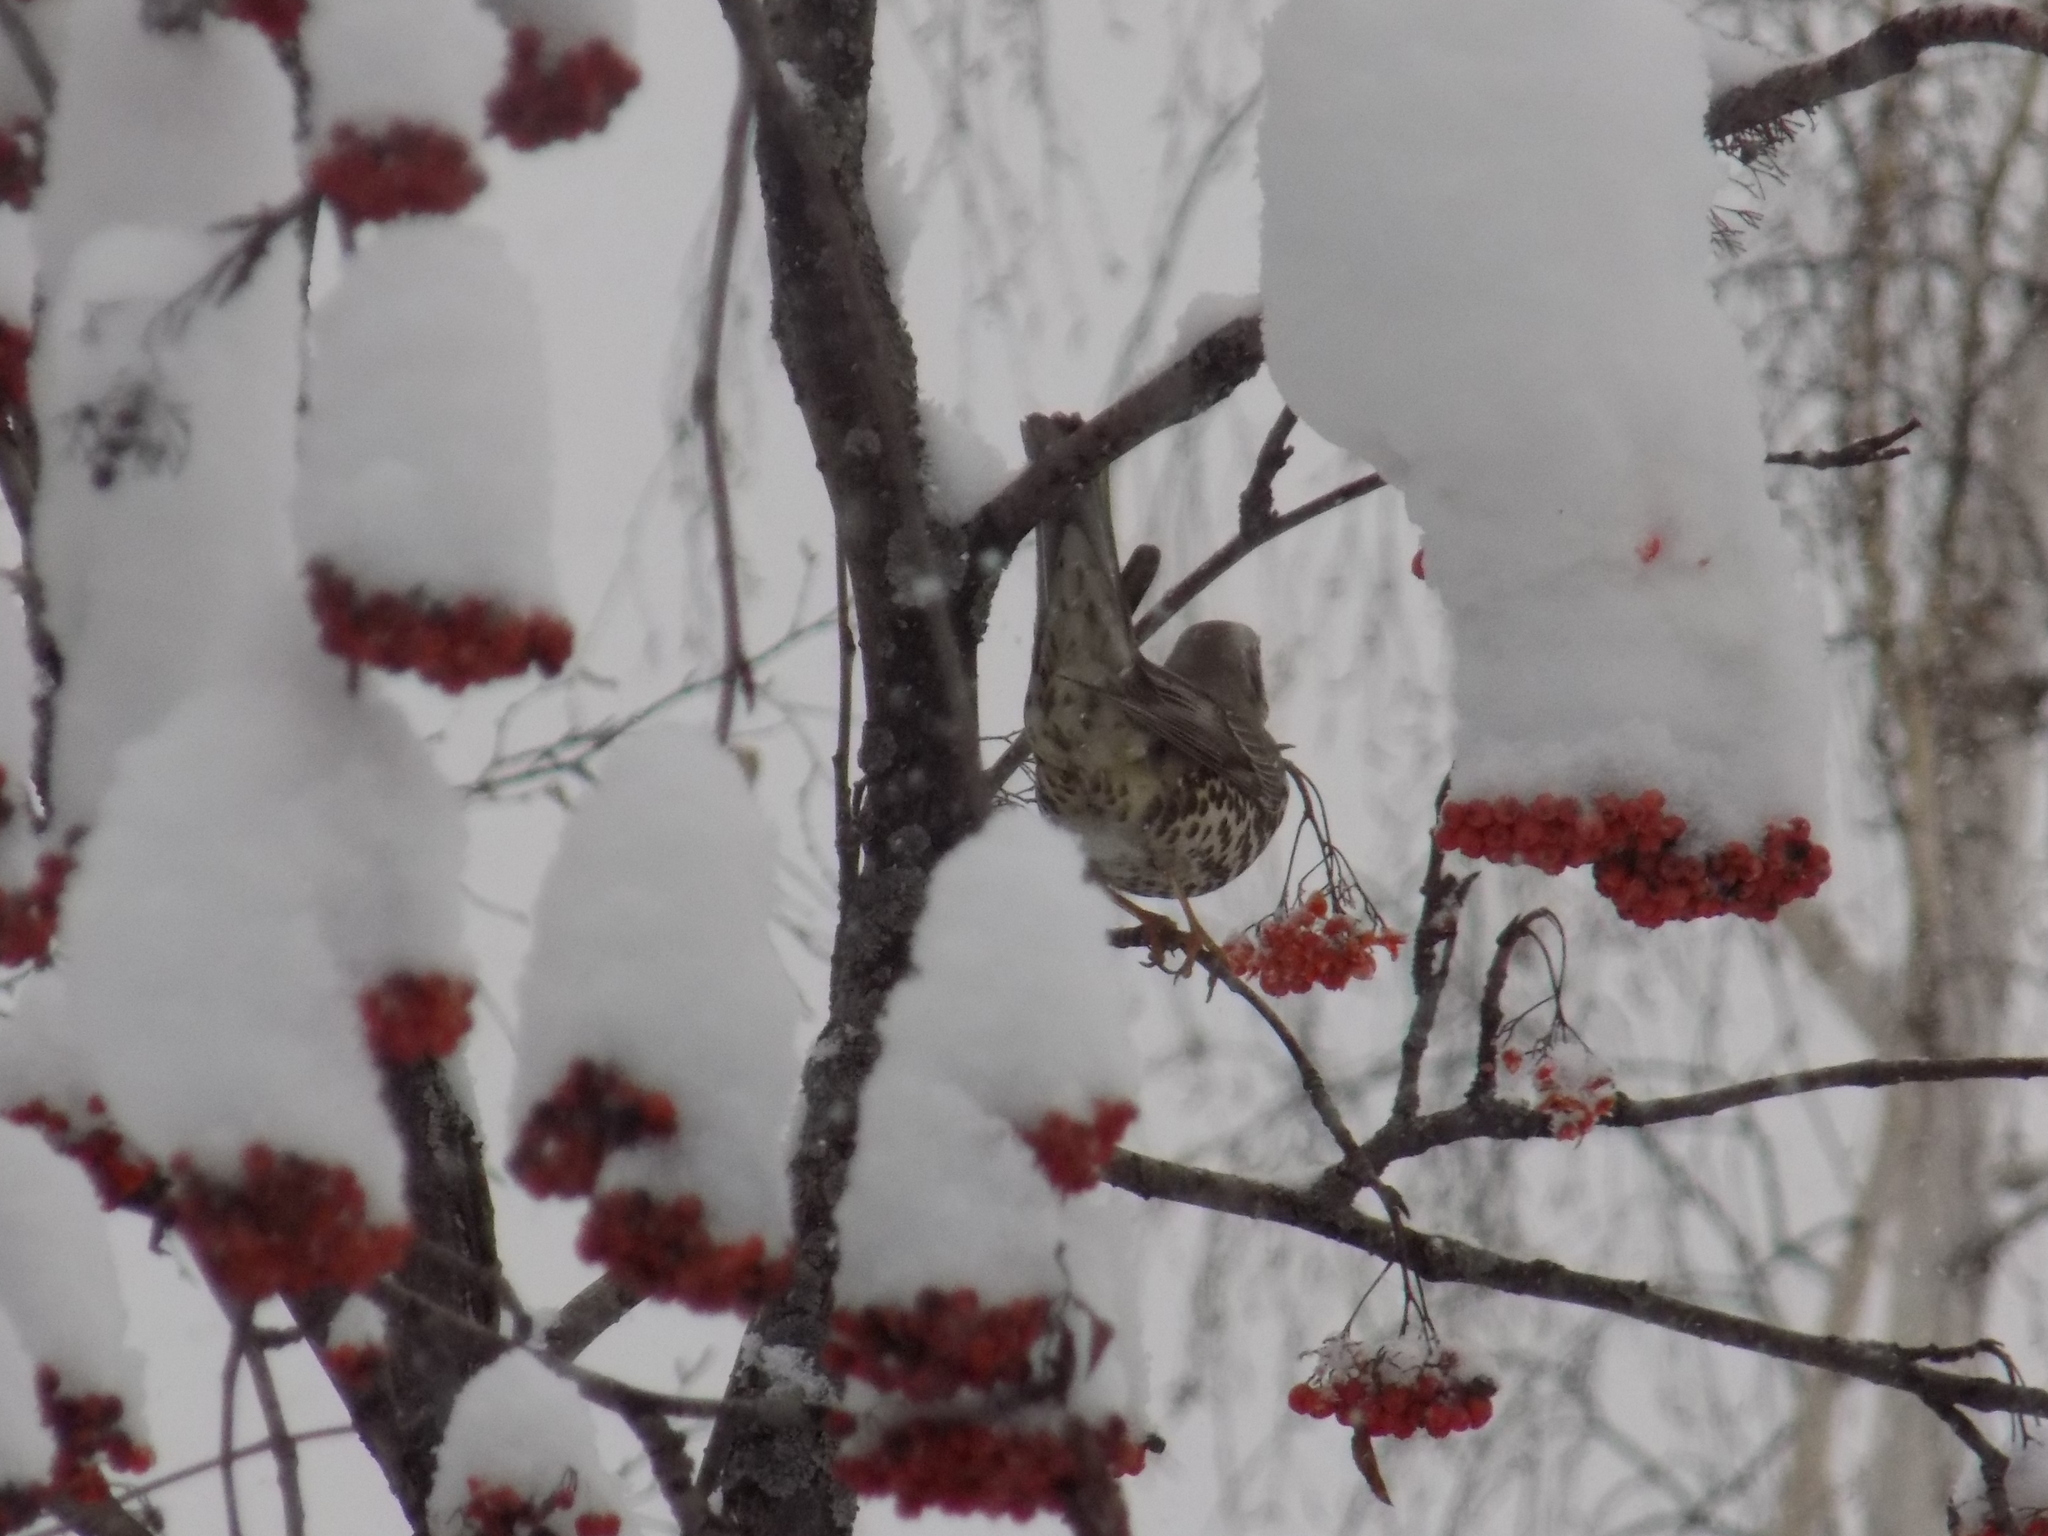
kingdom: Animalia
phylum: Chordata
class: Aves
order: Passeriformes
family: Turdidae
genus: Turdus
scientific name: Turdus viscivorus
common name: Mistle thrush
